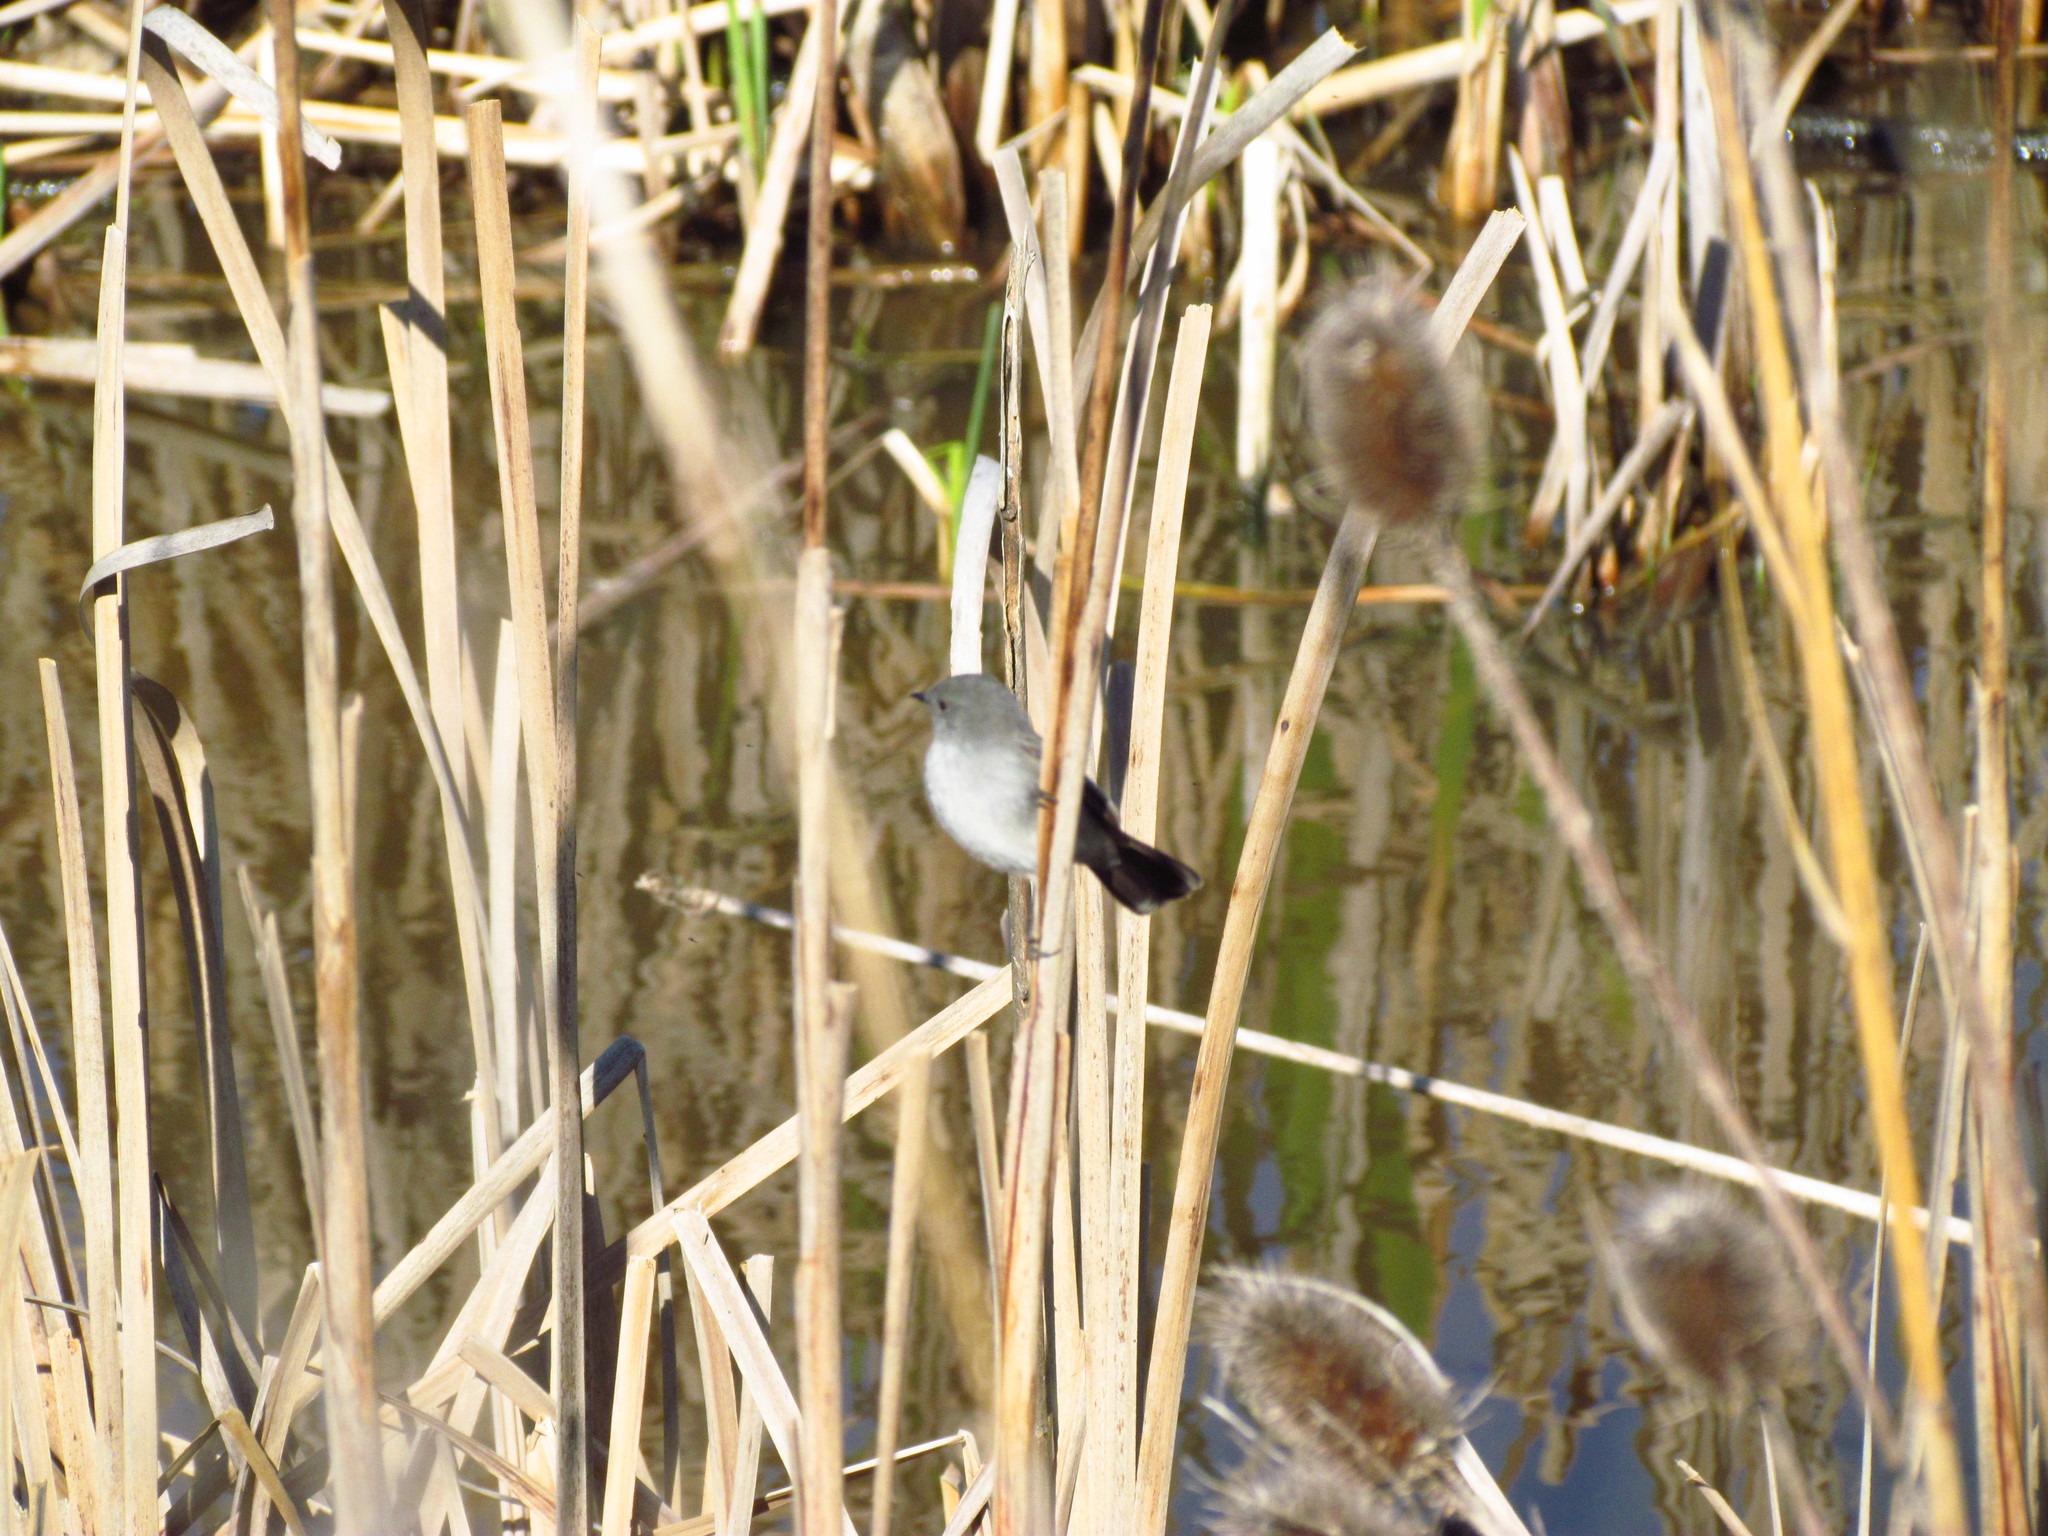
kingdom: Animalia
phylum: Chordata
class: Aves
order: Passeriformes
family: Tyrannidae
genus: Serpophaga
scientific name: Serpophaga nigricans
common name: Sooty tyrannulet
